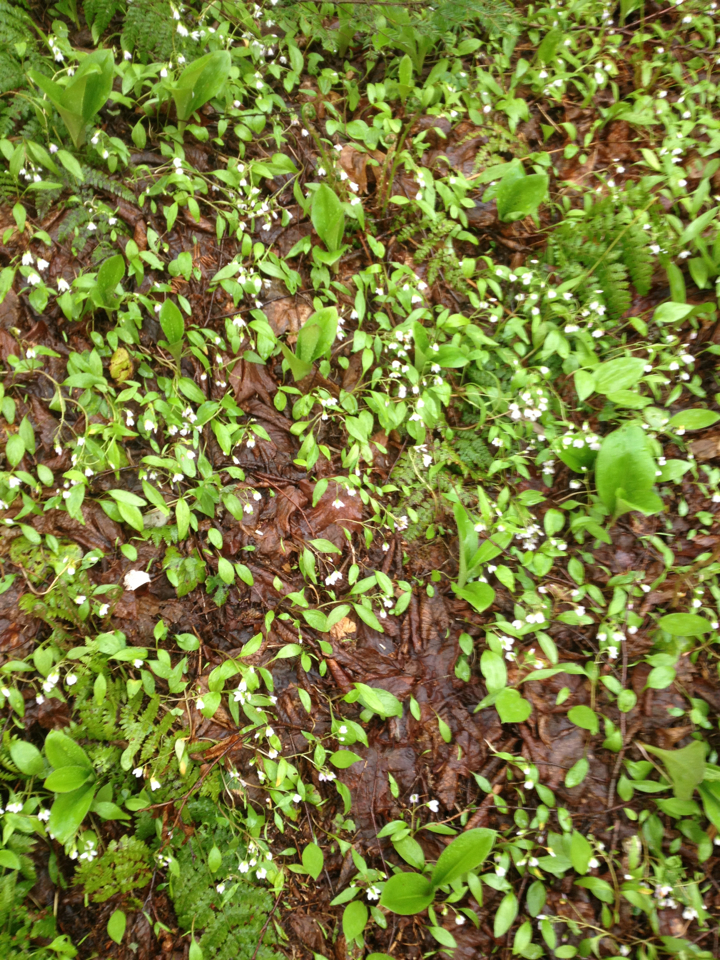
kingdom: Plantae
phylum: Tracheophyta
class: Magnoliopsida
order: Caryophyllales
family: Montiaceae
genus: Claytonia
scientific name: Claytonia caroliniana
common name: Carolina spring beauty
